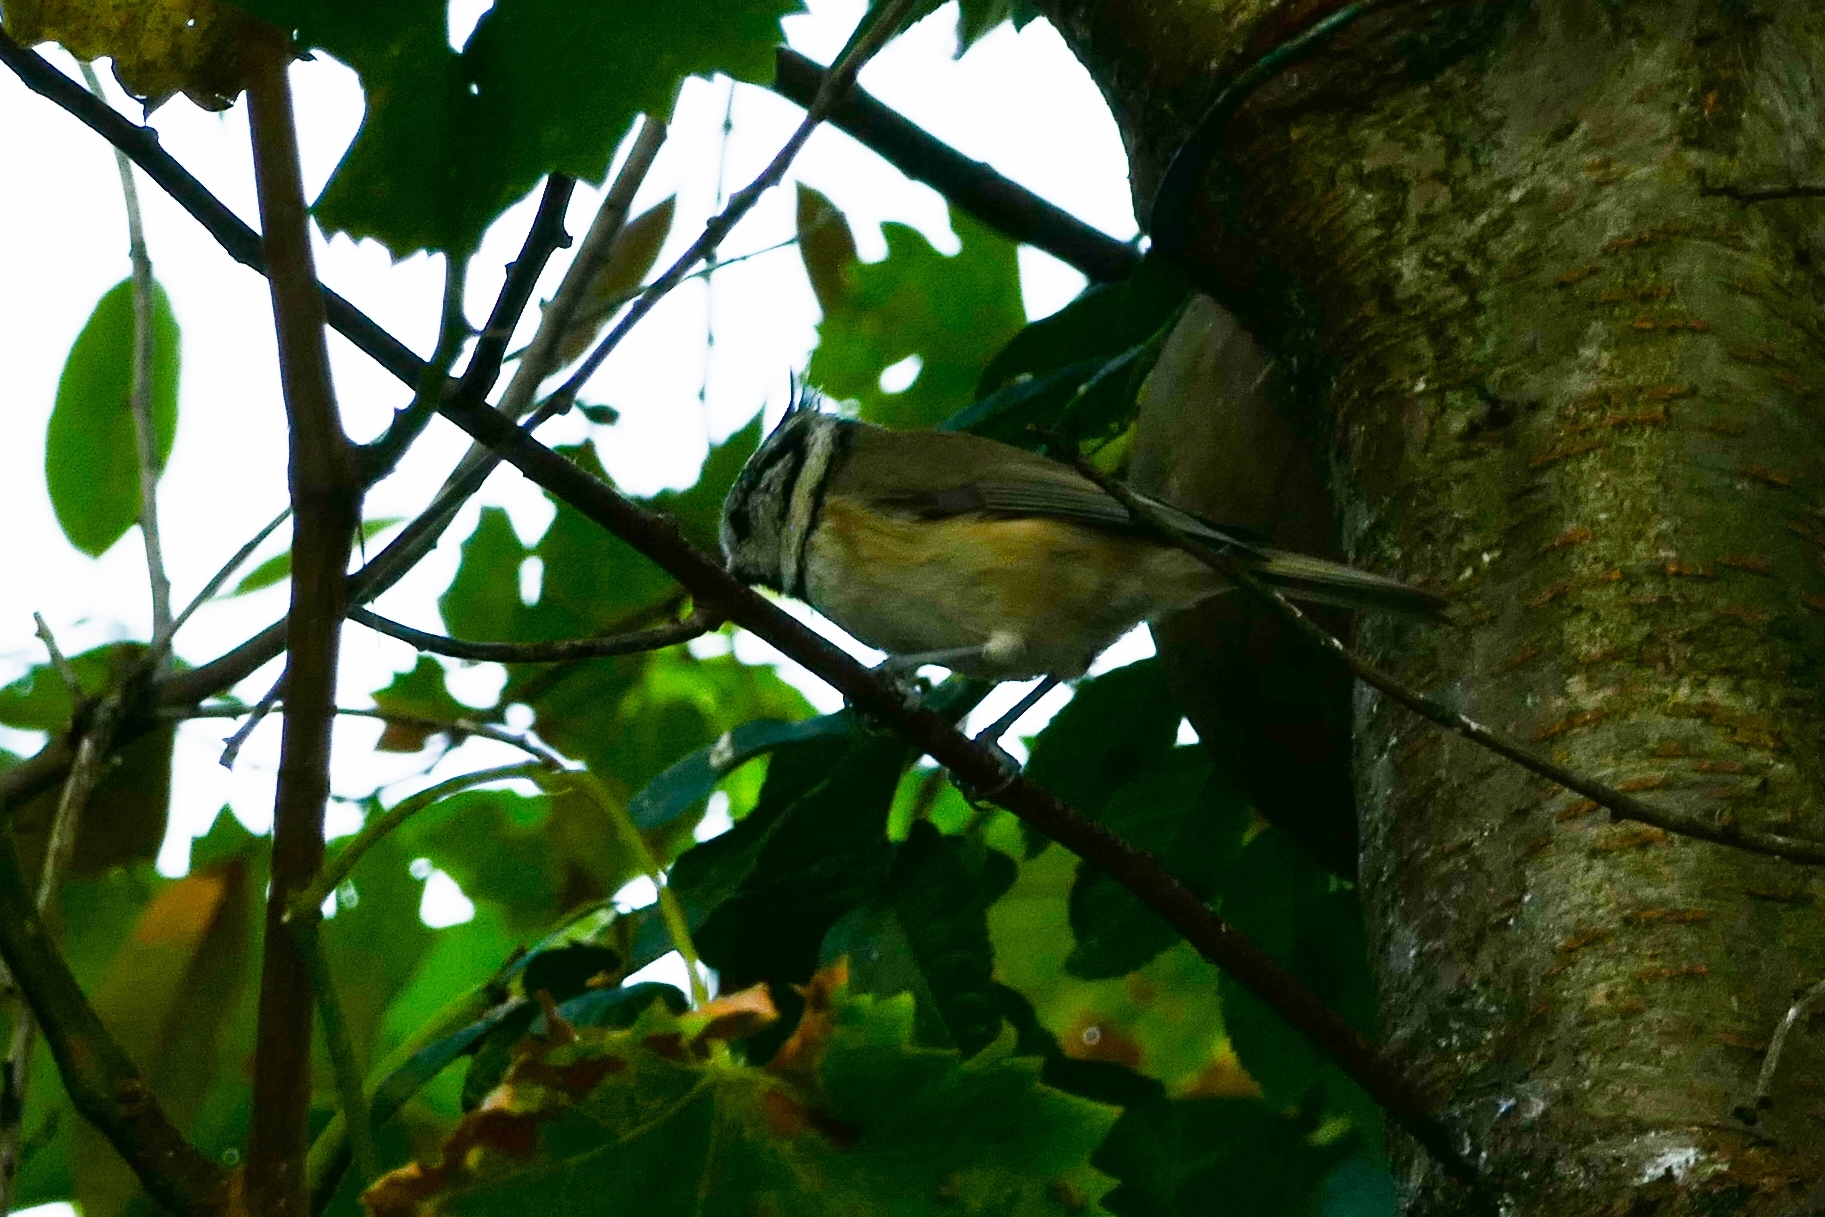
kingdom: Animalia
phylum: Chordata
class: Aves
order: Passeriformes
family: Paridae
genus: Lophophanes
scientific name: Lophophanes cristatus
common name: European crested tit
